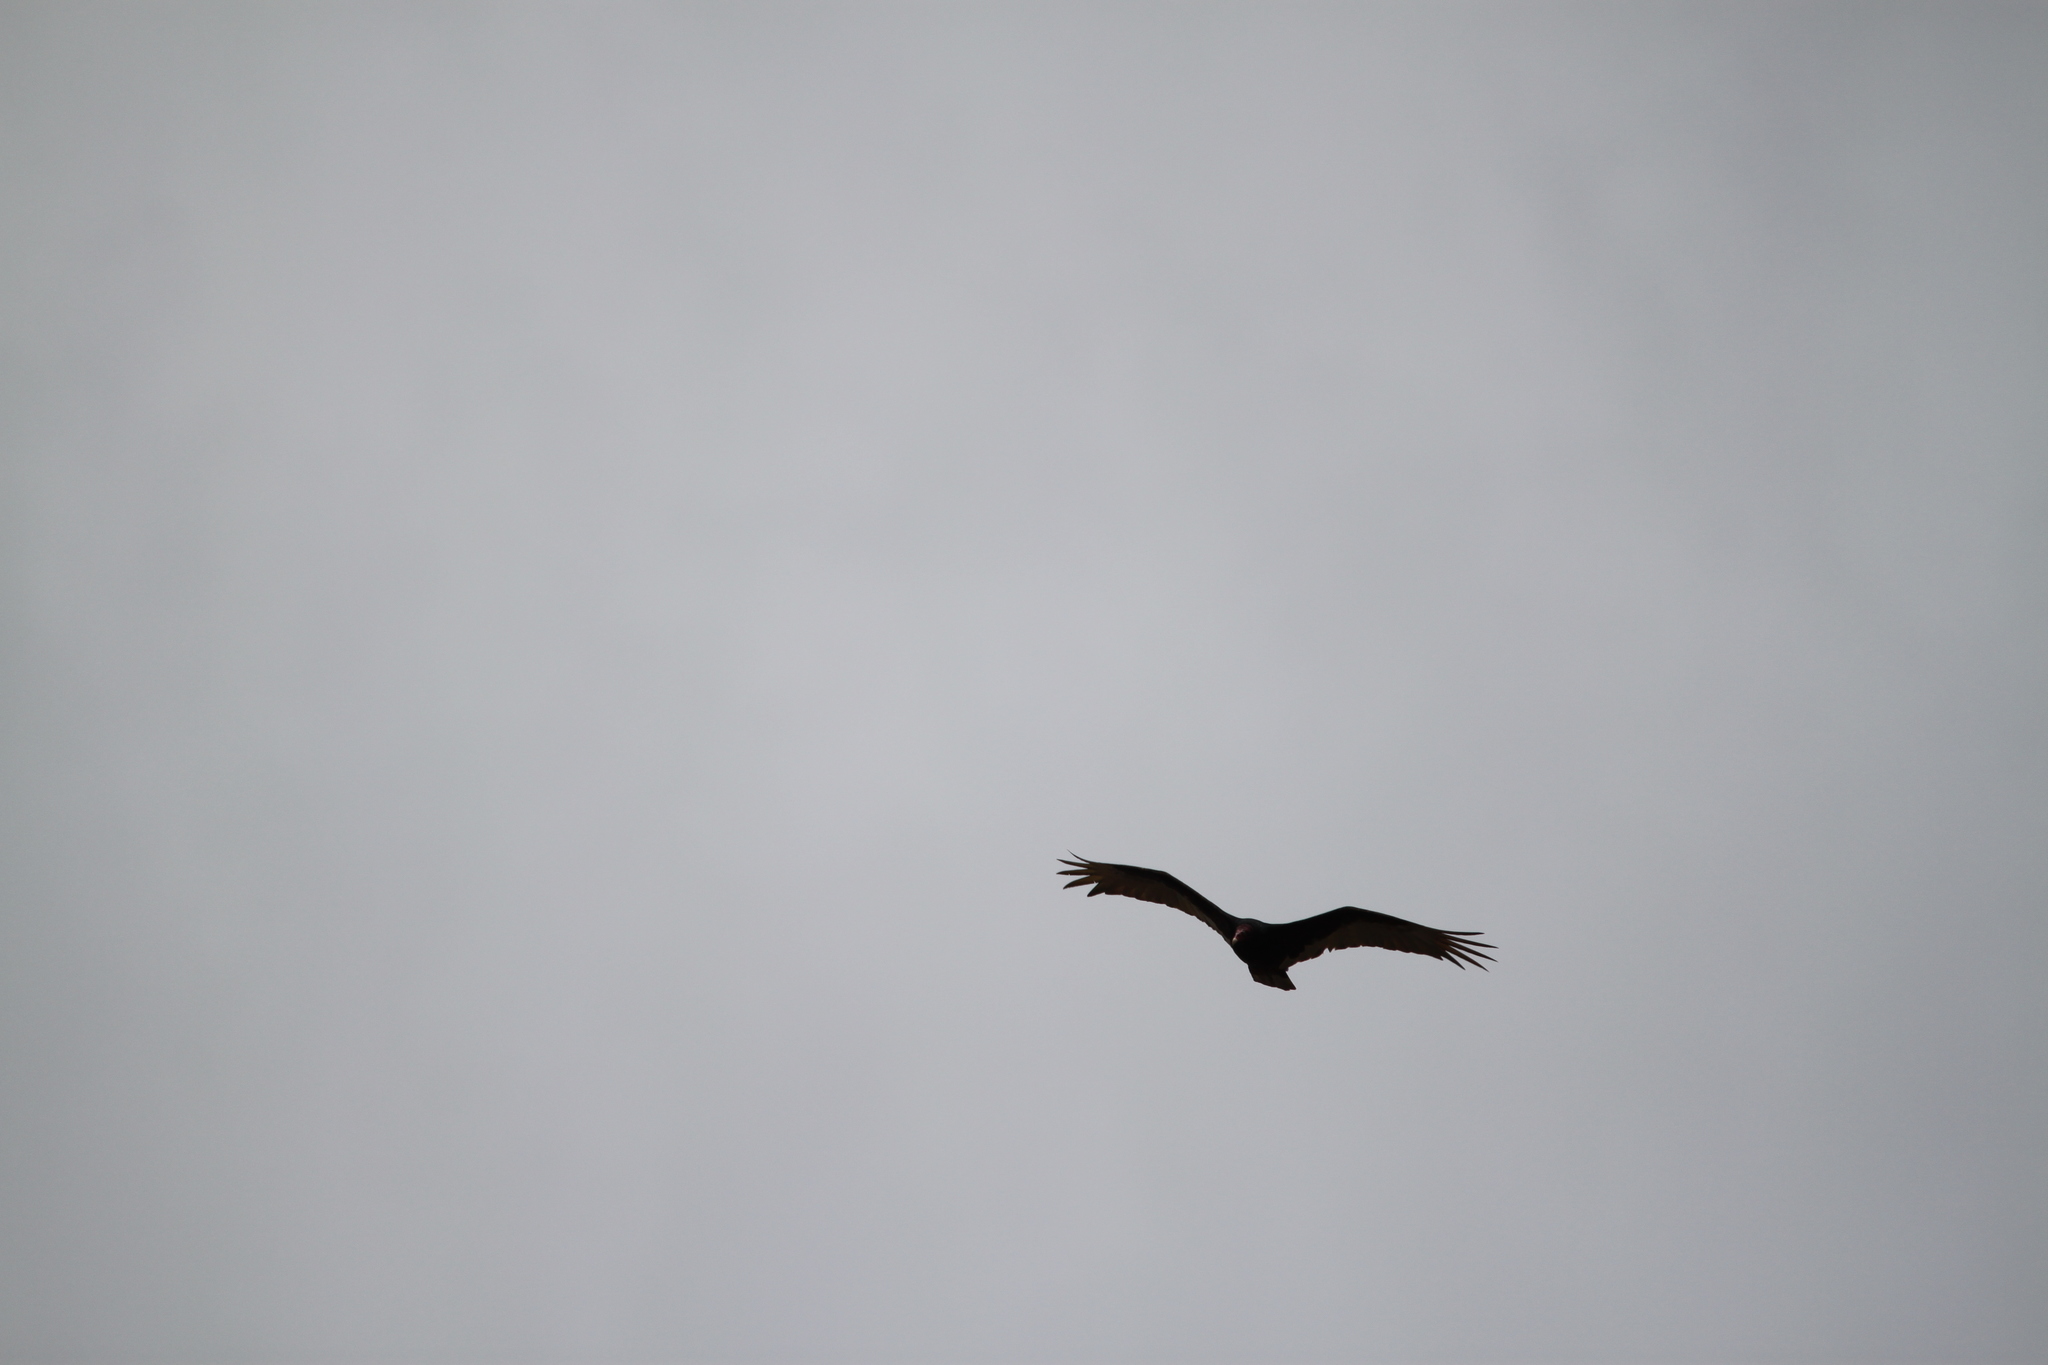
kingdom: Animalia
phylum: Chordata
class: Aves
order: Accipitriformes
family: Cathartidae
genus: Cathartes
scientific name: Cathartes aura
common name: Turkey vulture
